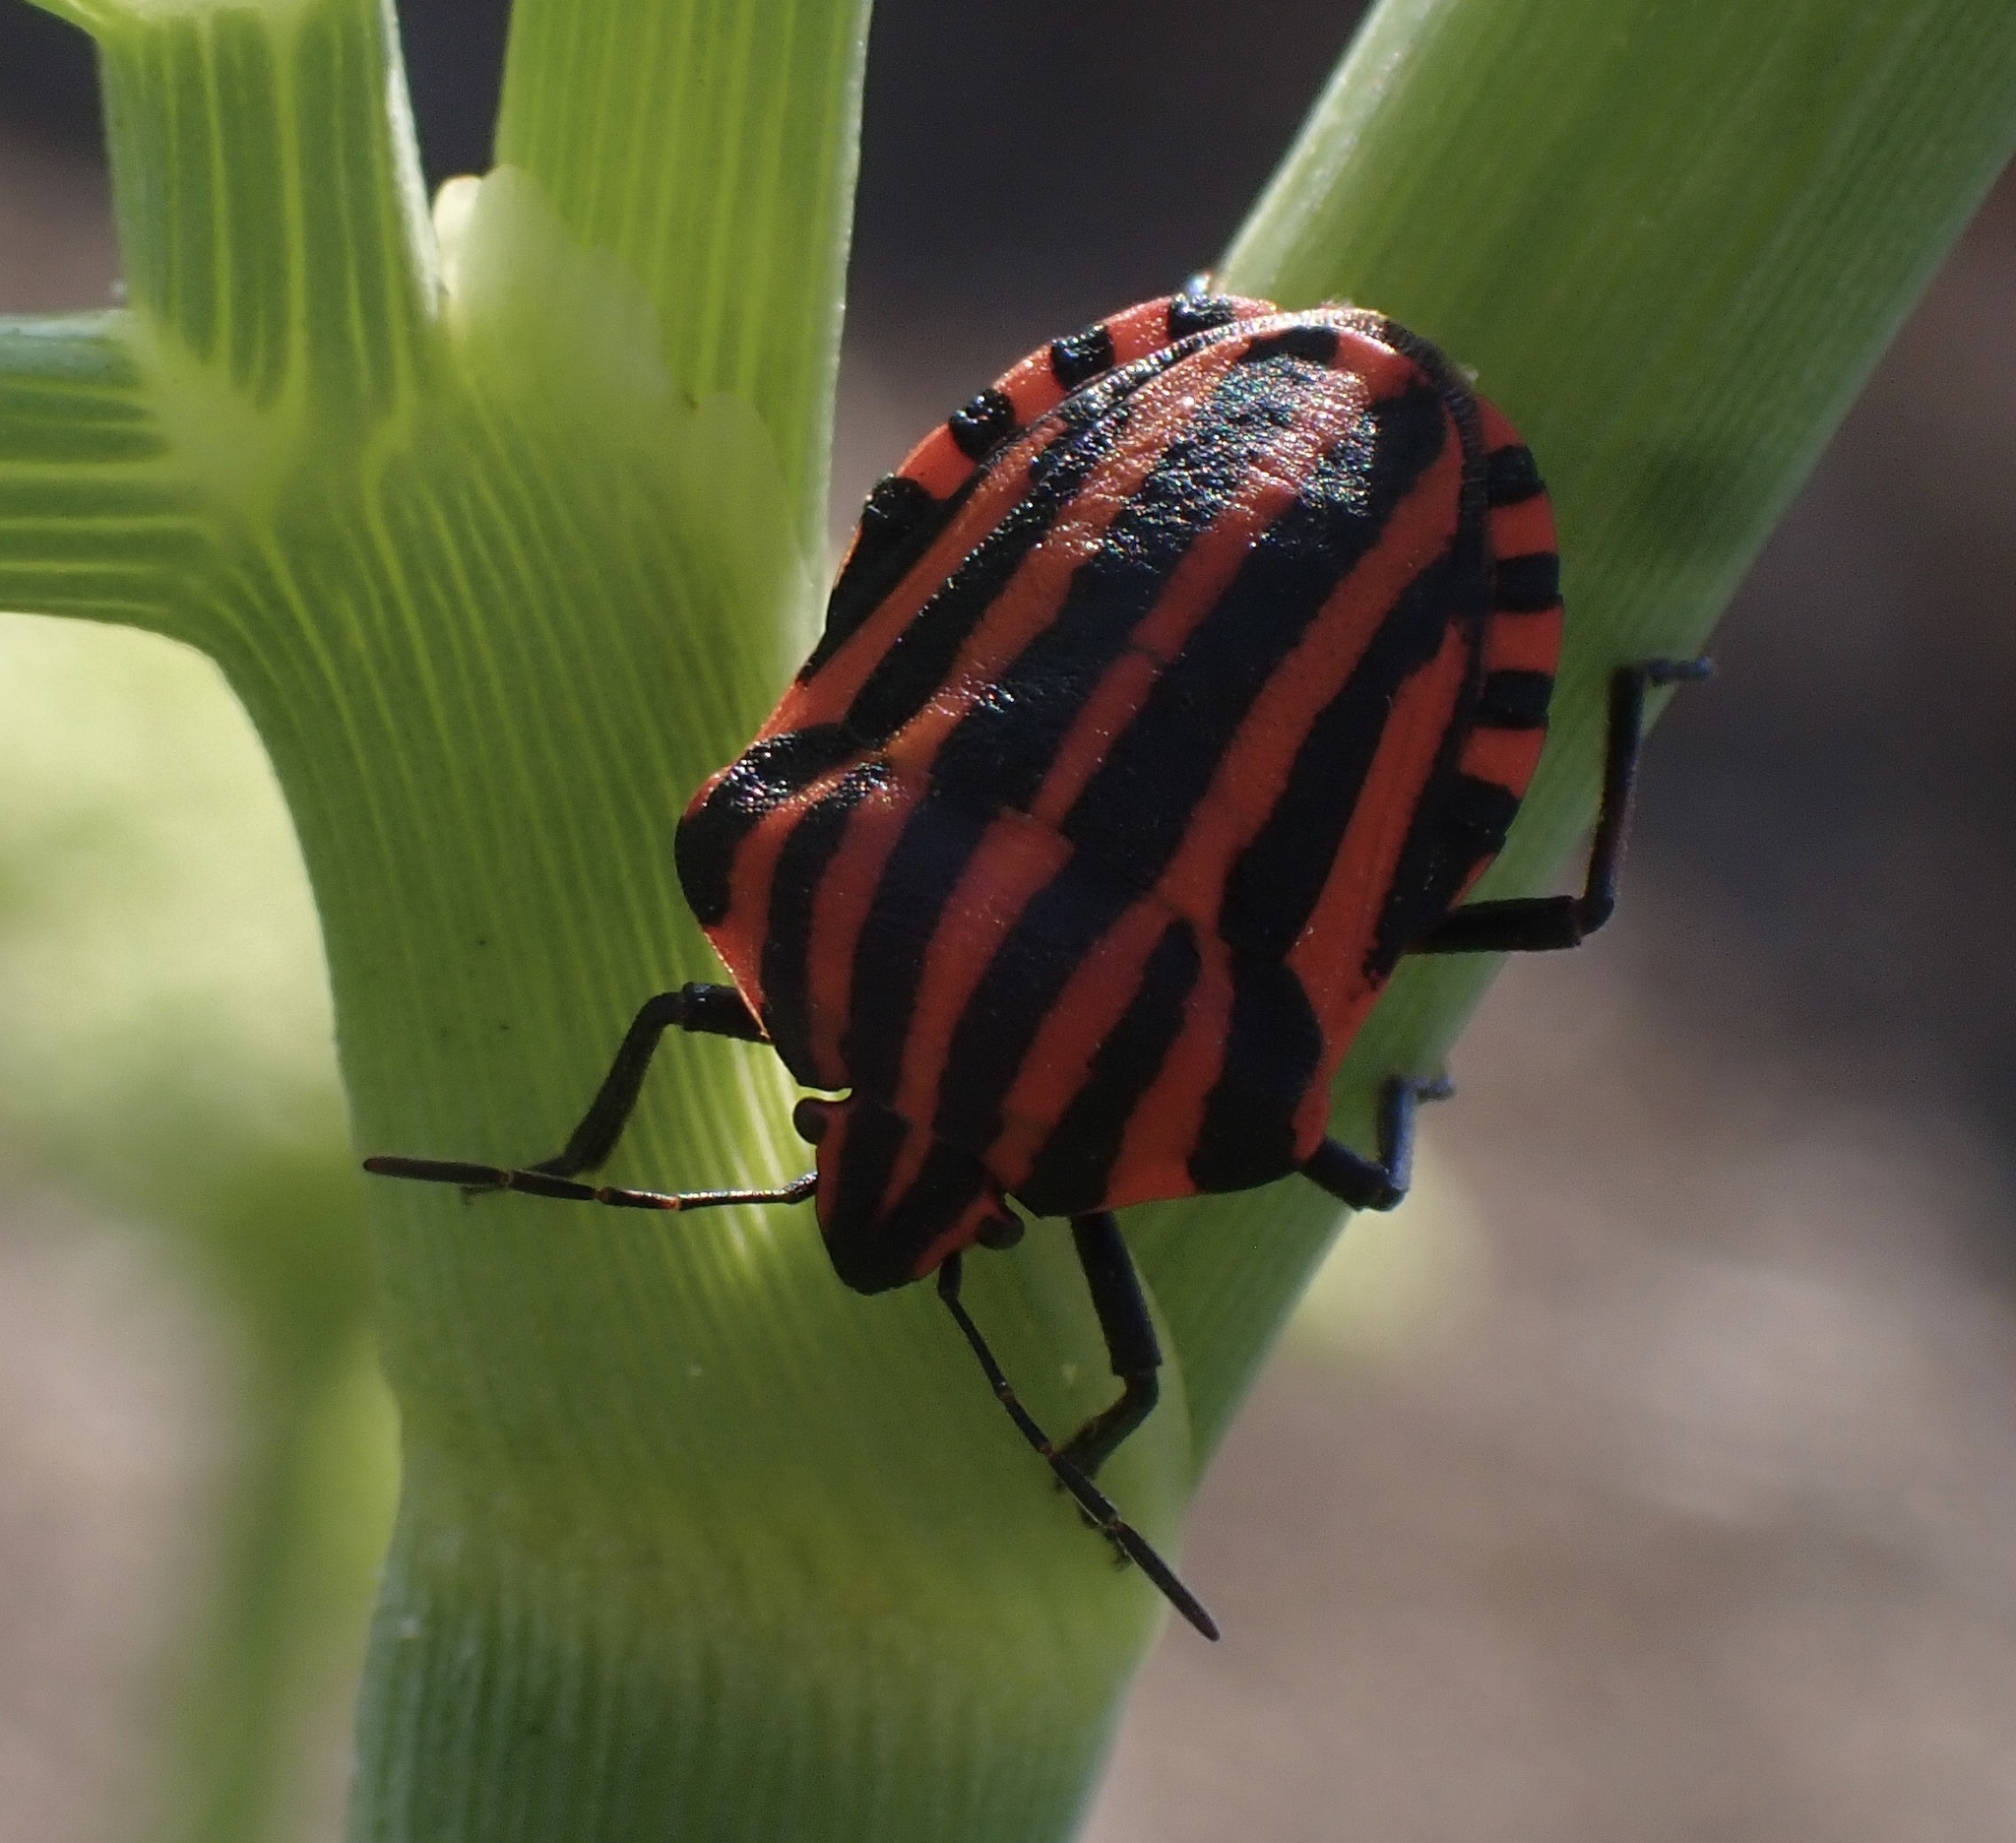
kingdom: Animalia
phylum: Arthropoda
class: Insecta
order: Hemiptera
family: Pentatomidae
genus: Graphosoma
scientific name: Graphosoma italicum
